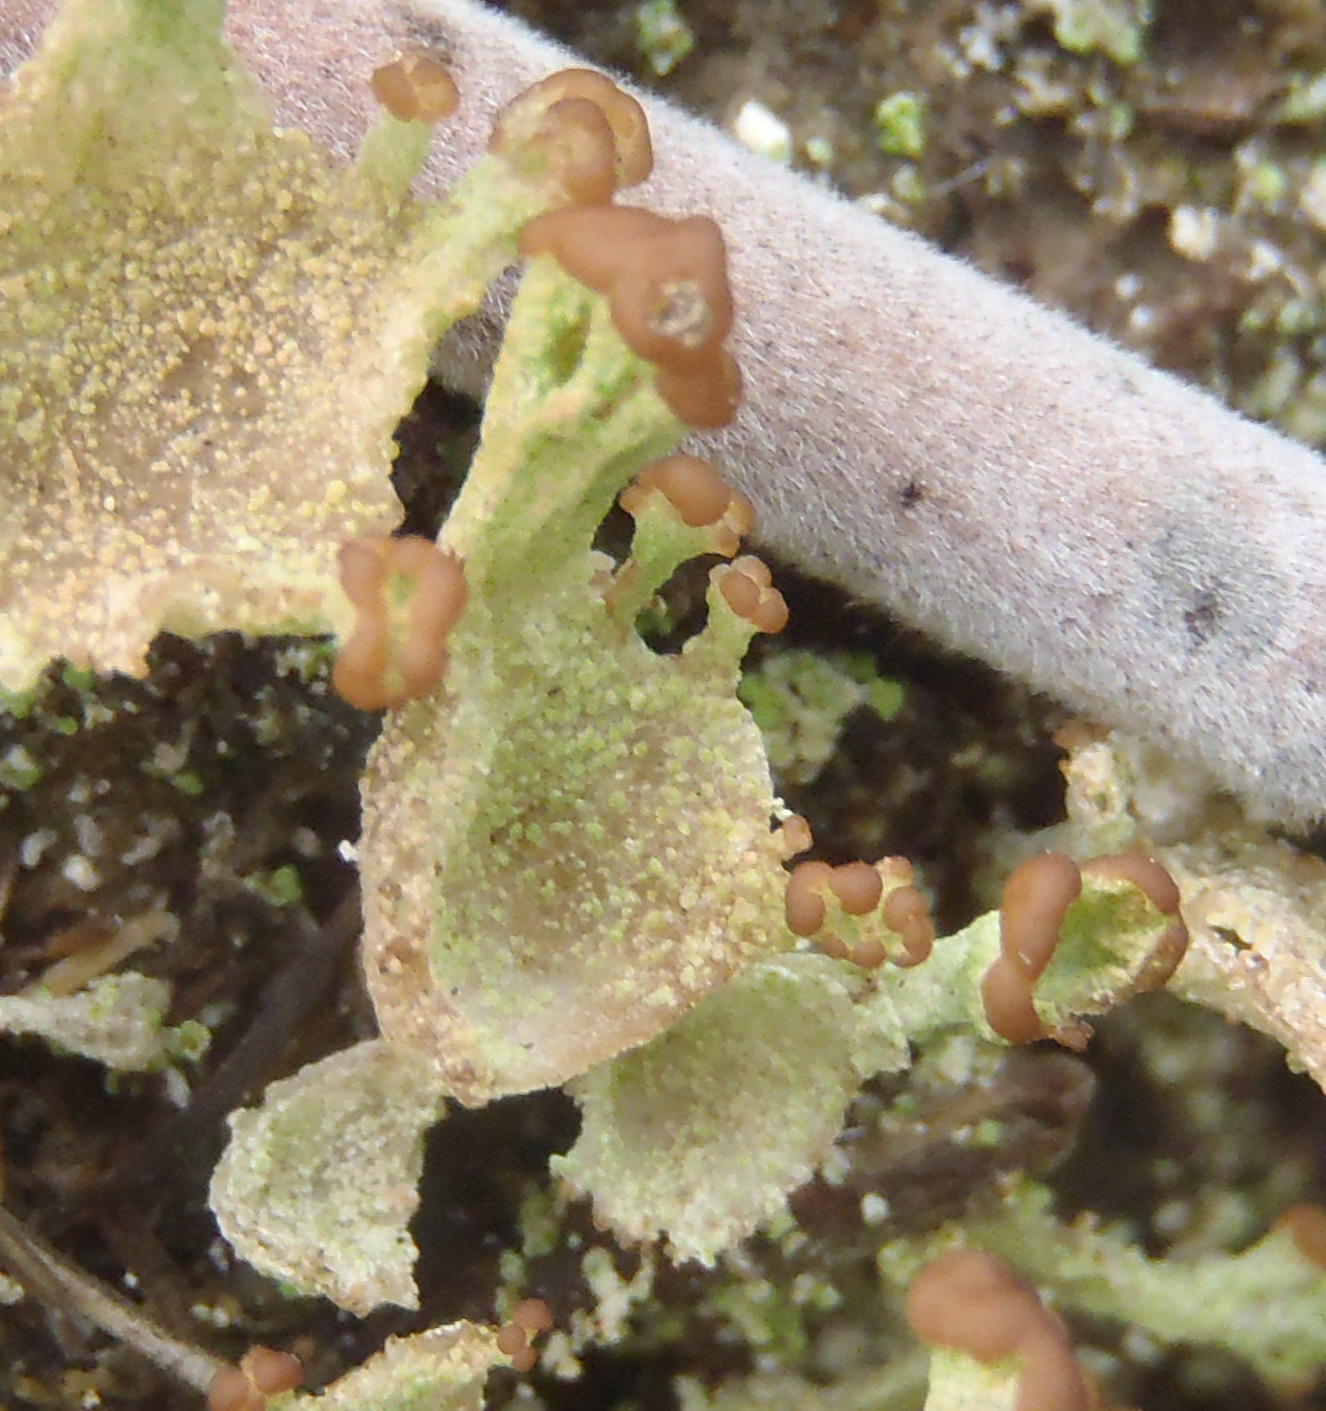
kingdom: Fungi
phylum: Ascomycota
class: Lecanoromycetes
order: Lecanorales
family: Cladoniaceae
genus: Cladonia
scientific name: Cladonia intermediella
